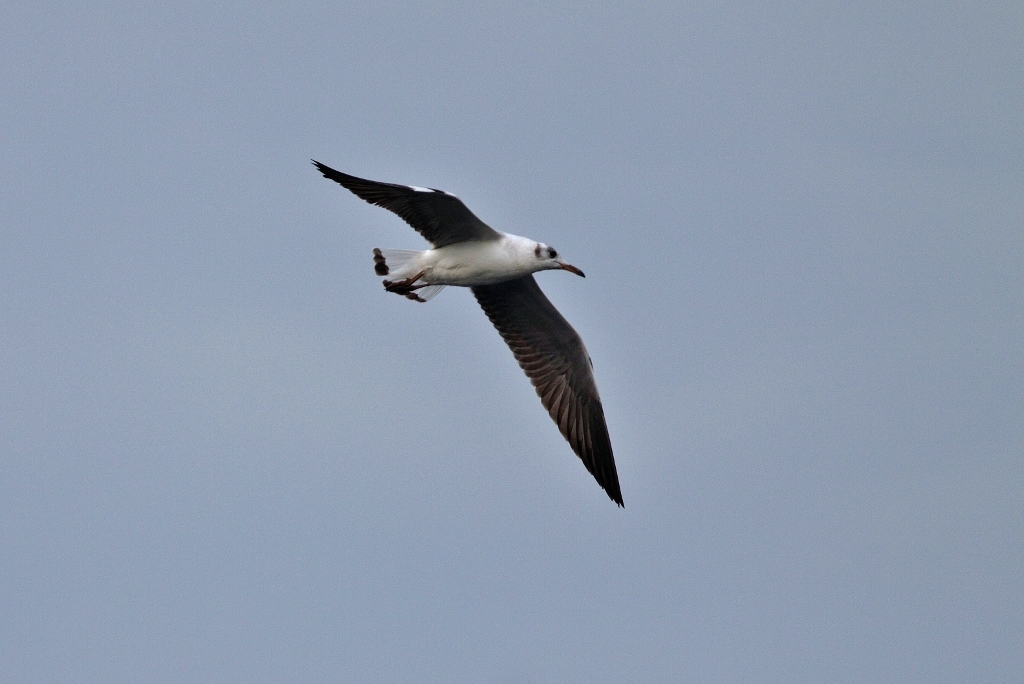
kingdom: Animalia
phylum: Chordata
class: Aves
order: Charadriiformes
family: Laridae
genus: Chroicocephalus
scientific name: Chroicocephalus cirrocephalus
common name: Grey-headed gull
